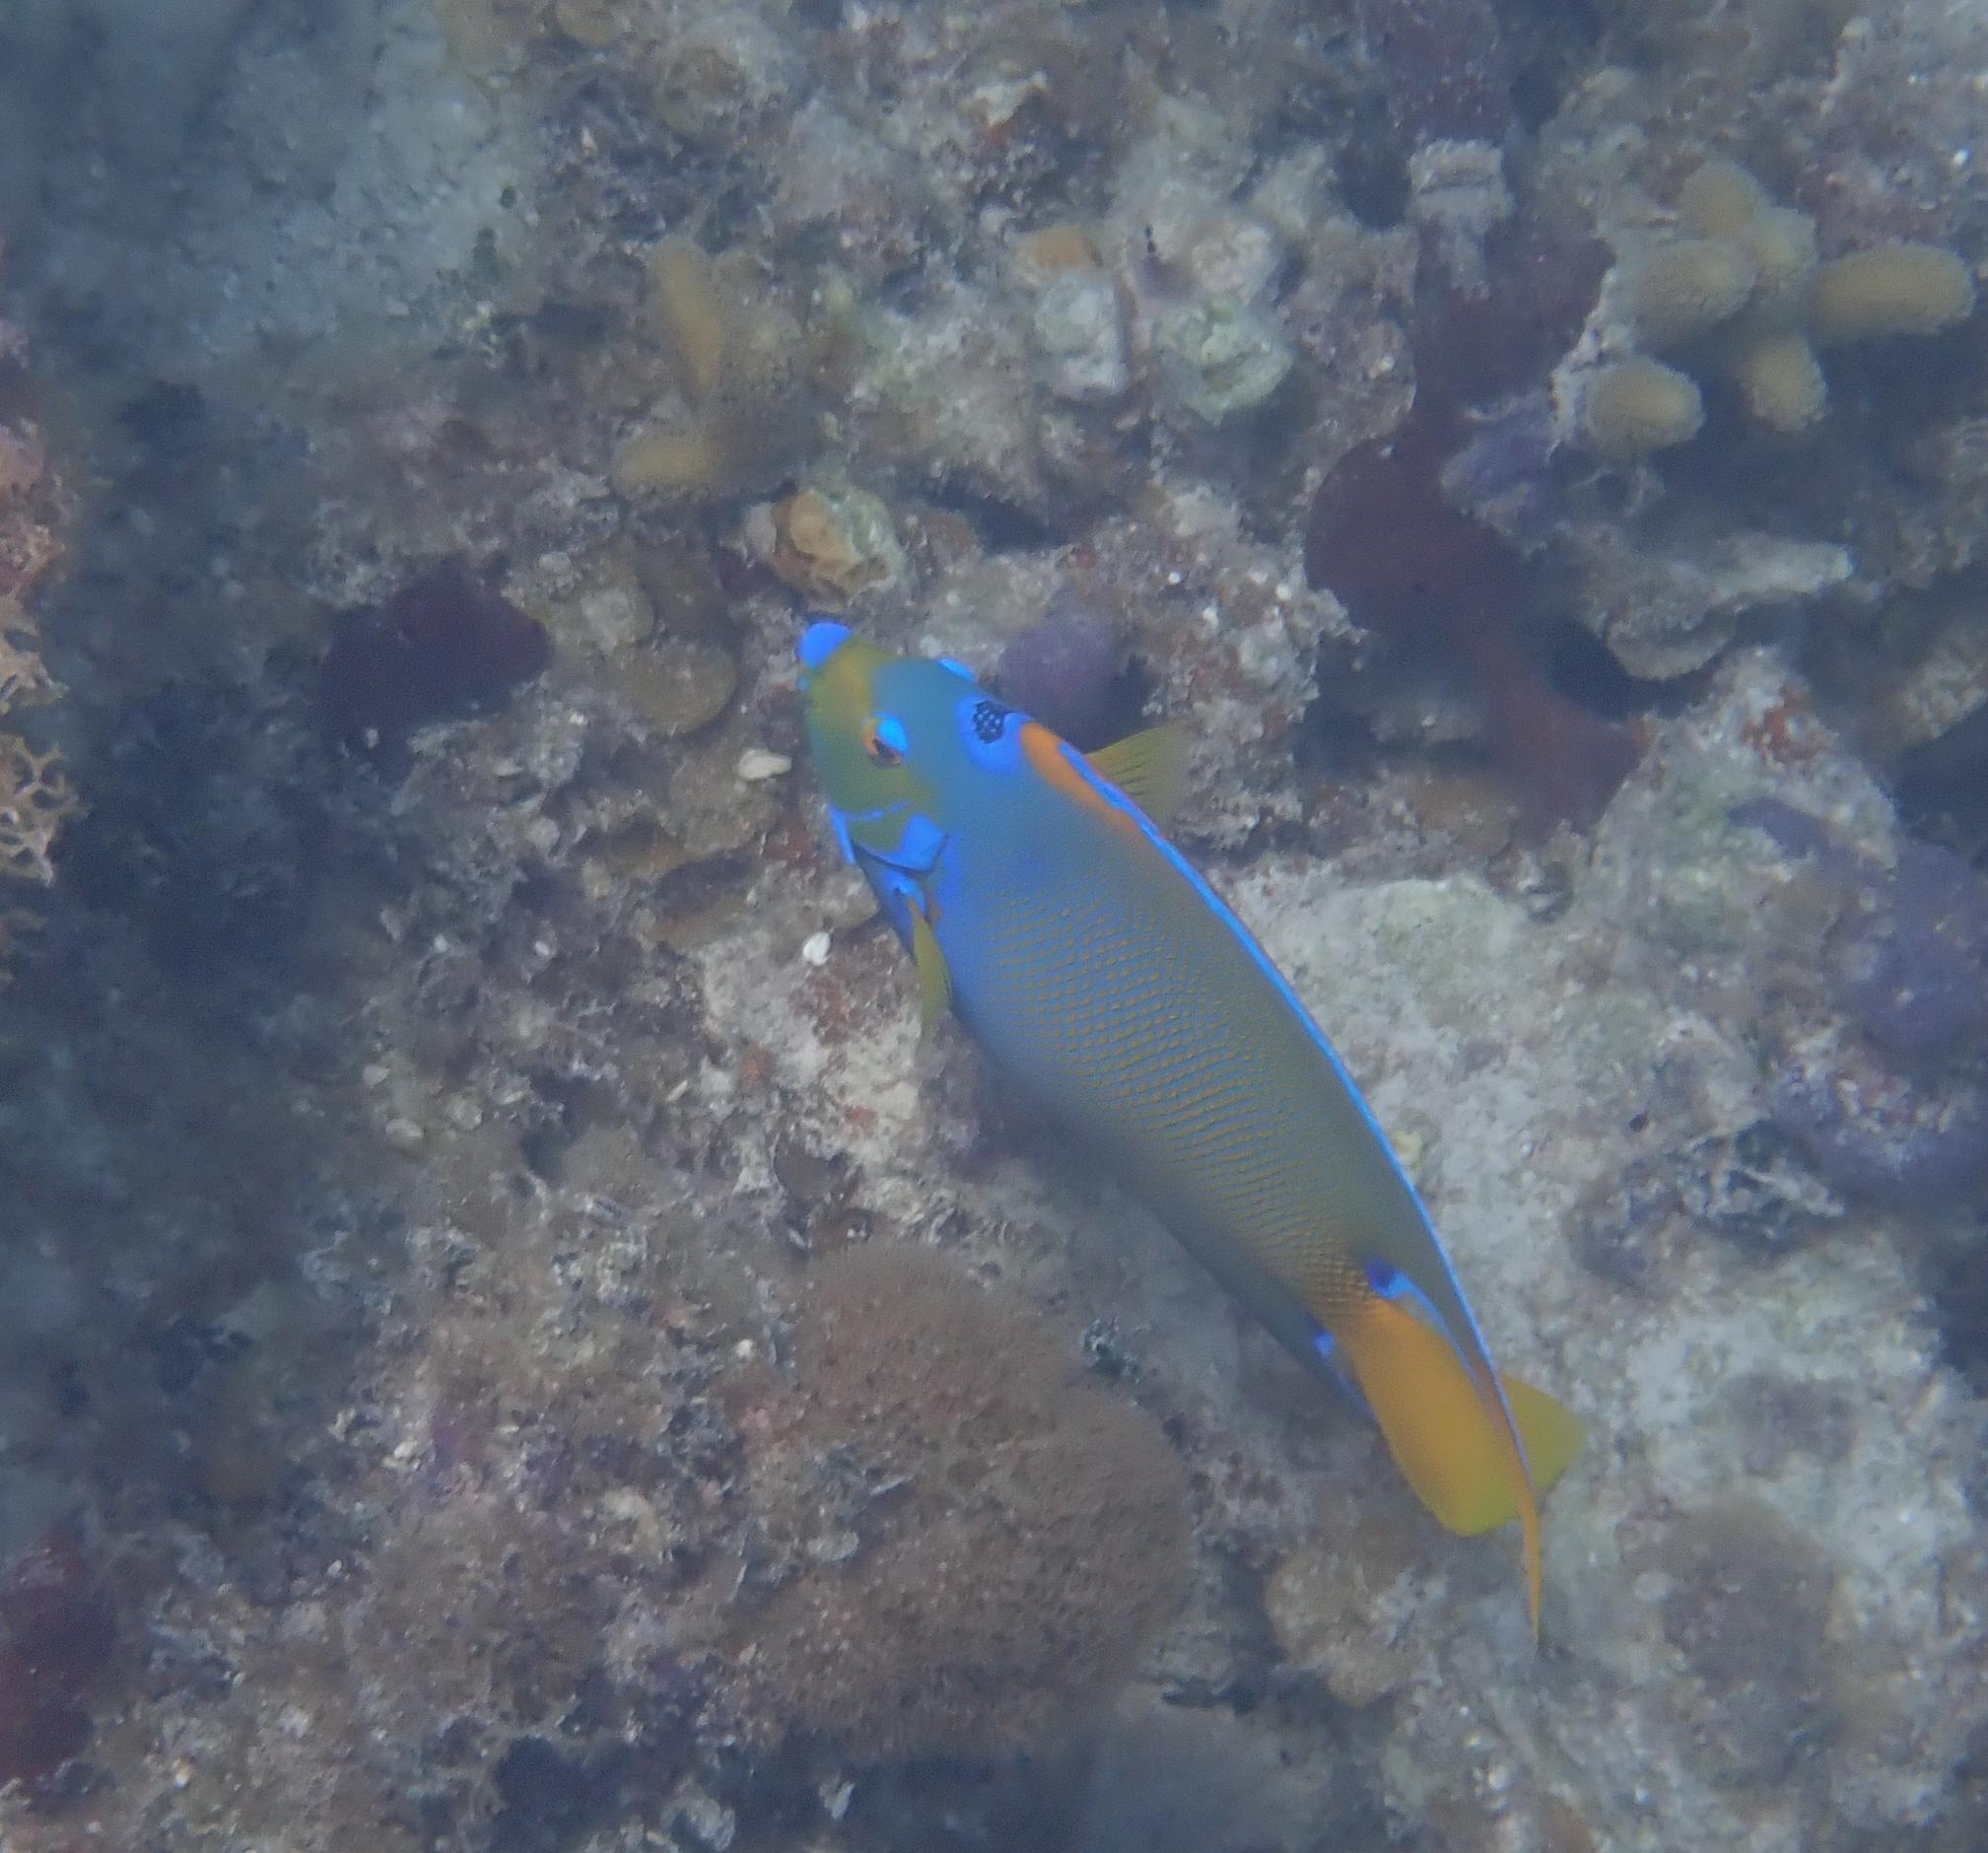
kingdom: Animalia
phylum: Chordata
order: Perciformes
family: Pomacanthidae
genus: Holacanthus
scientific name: Holacanthus ciliaris
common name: Queen angelfish
